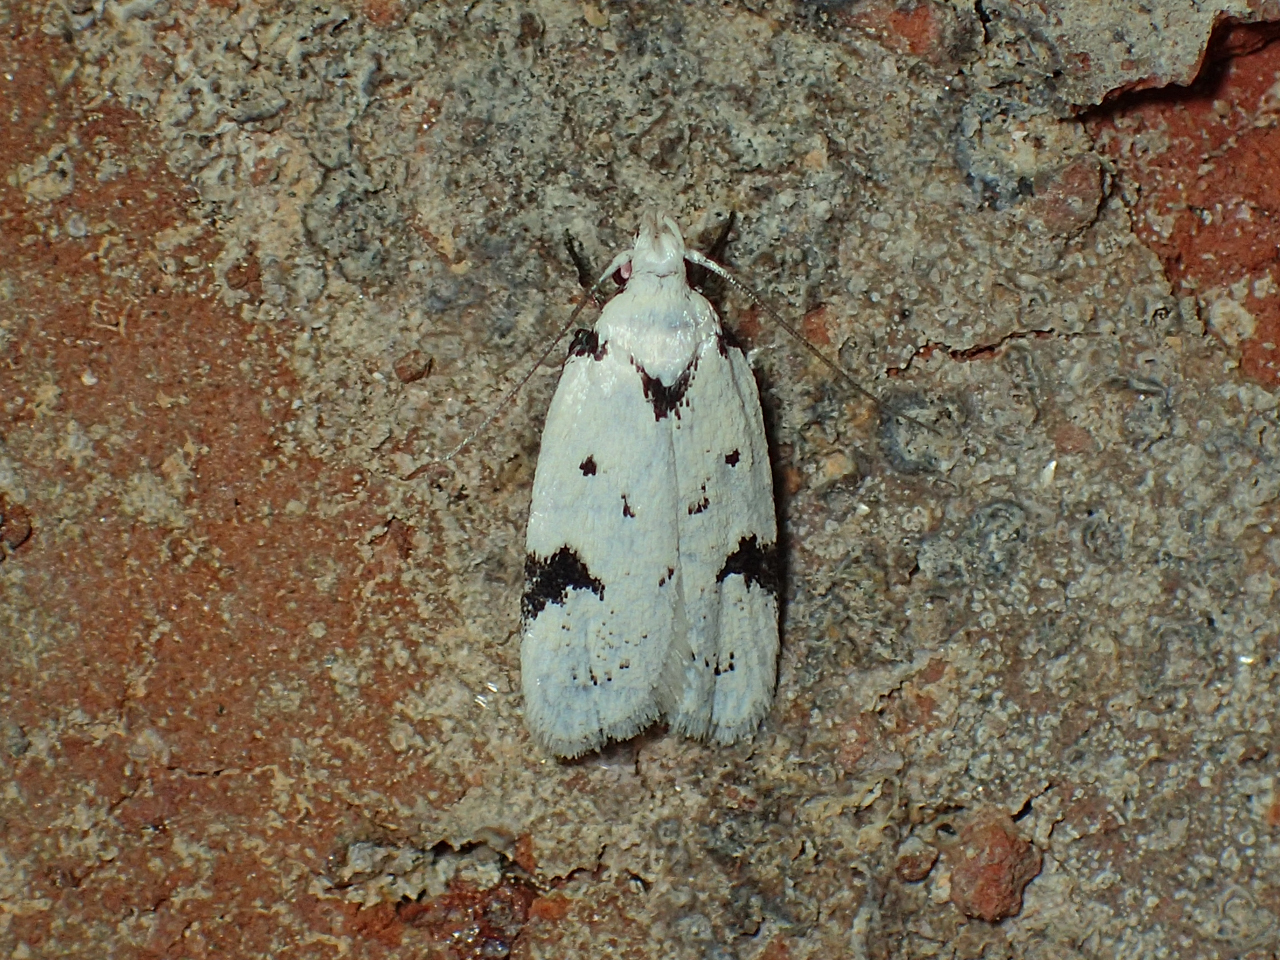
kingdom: Animalia
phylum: Arthropoda
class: Insecta
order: Lepidoptera
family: Oecophoridae
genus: Inga
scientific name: Inga sparsiciliella
